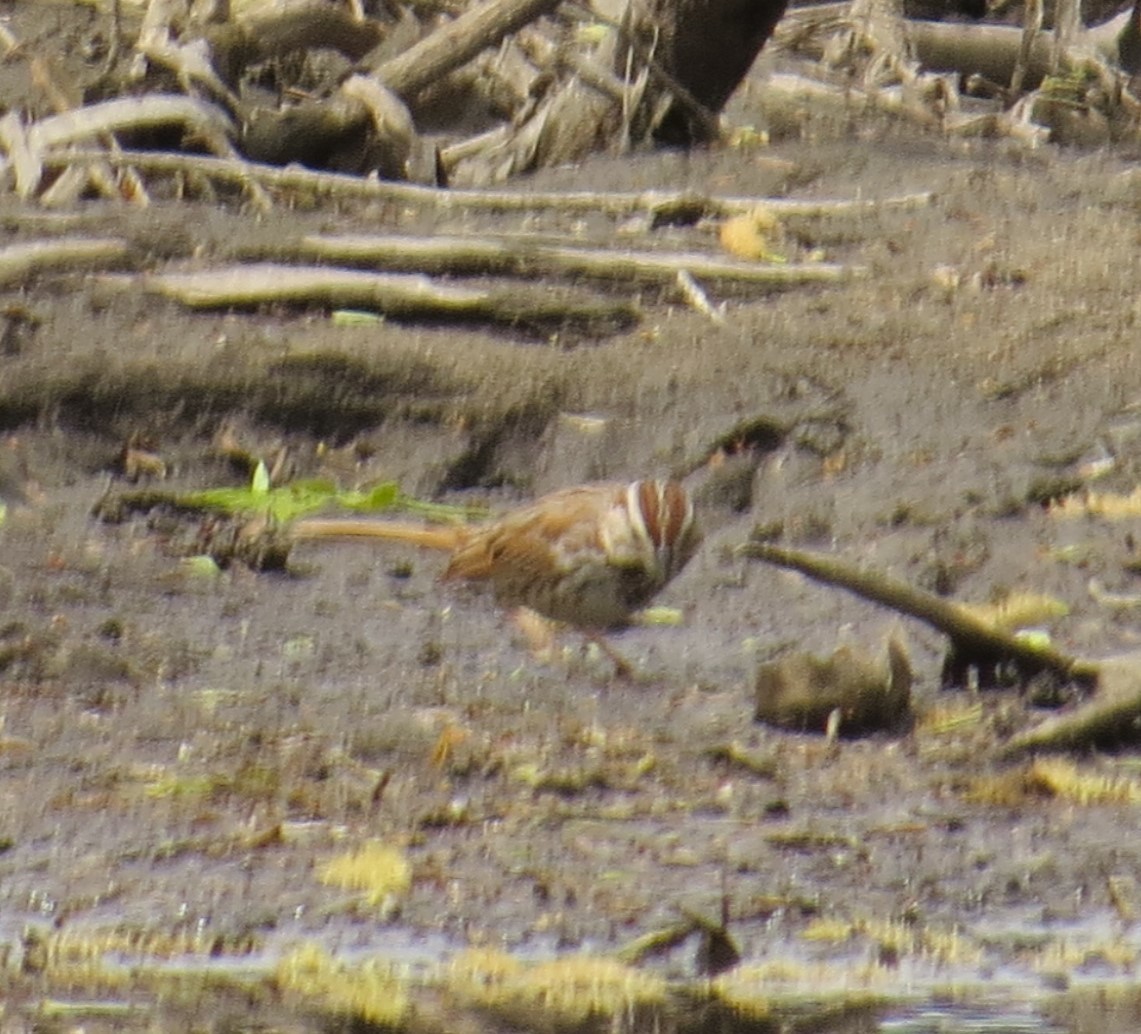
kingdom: Animalia
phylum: Chordata
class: Aves
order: Passeriformes
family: Passerellidae
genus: Melospiza
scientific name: Melospiza melodia
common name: Song sparrow
